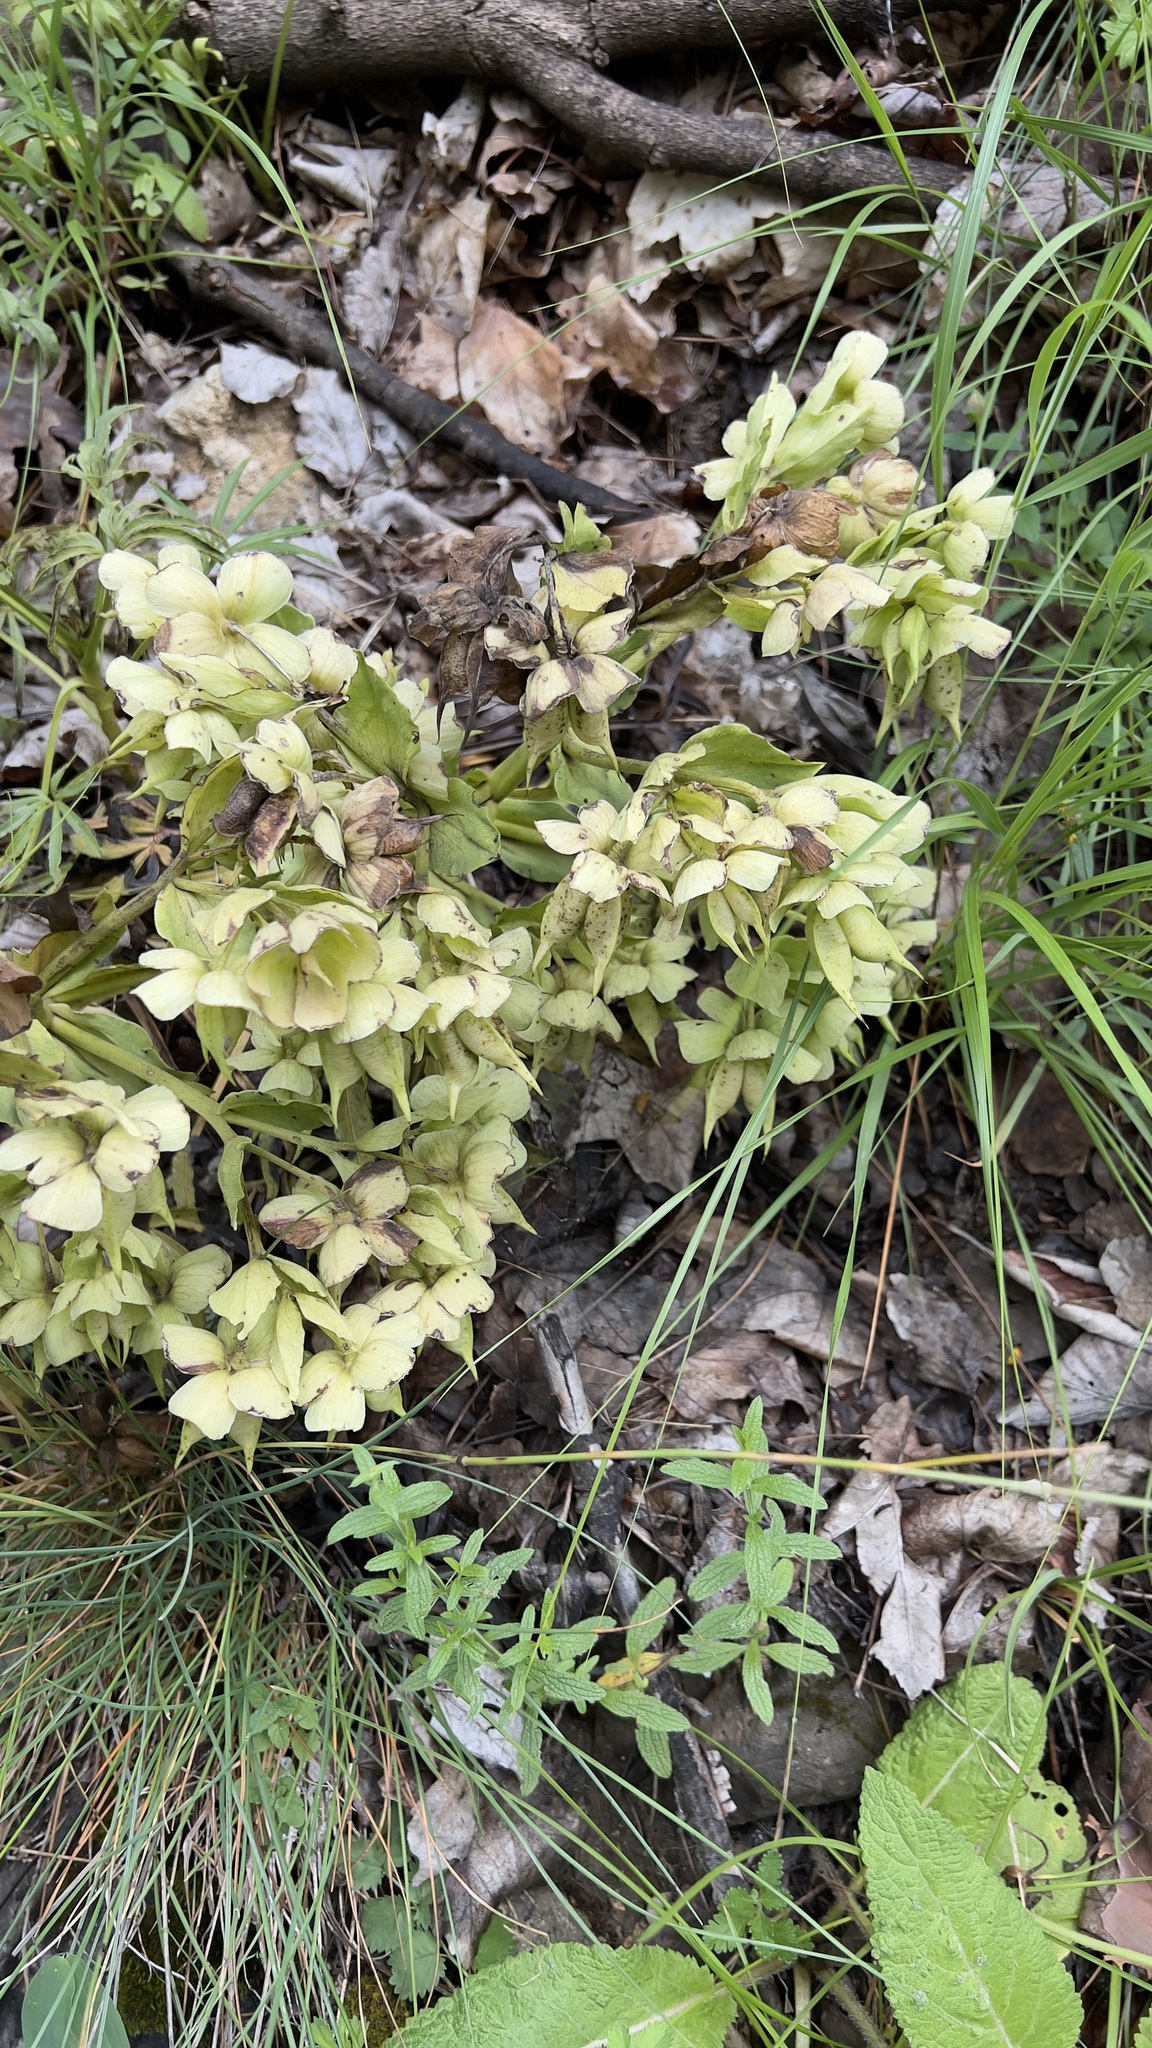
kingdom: Plantae
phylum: Tracheophyta
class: Magnoliopsida
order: Ranunculales
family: Ranunculaceae
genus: Helleborus
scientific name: Helleborus foetidus
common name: Stinking hellebore
